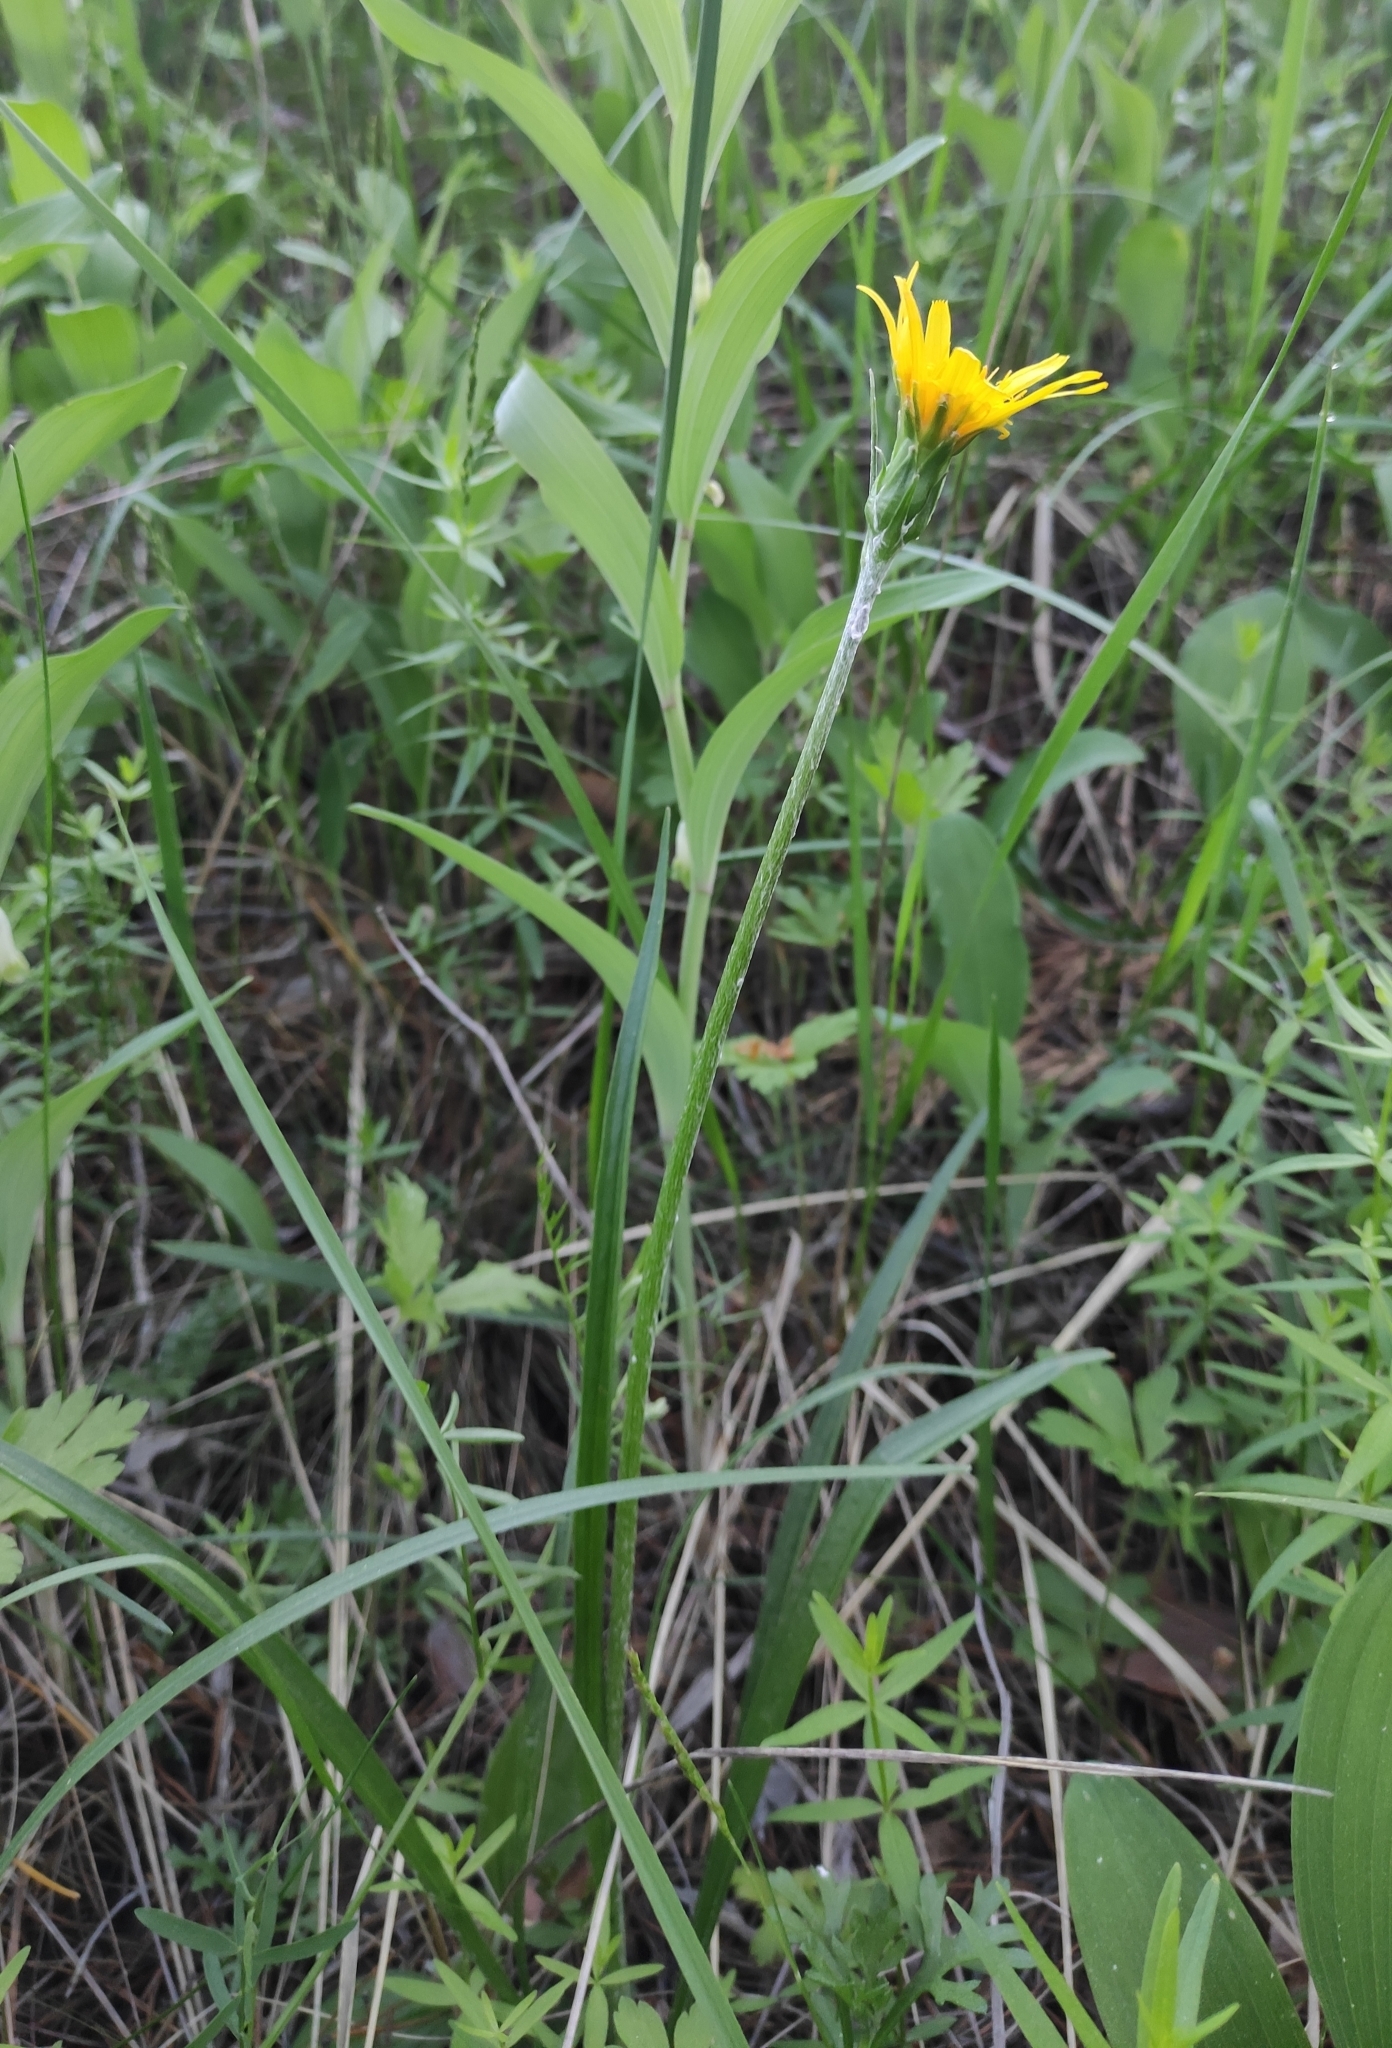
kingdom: Plantae
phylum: Tracheophyta
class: Magnoliopsida
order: Asterales
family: Asteraceae
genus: Scorzonera
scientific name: Scorzonera radiata
